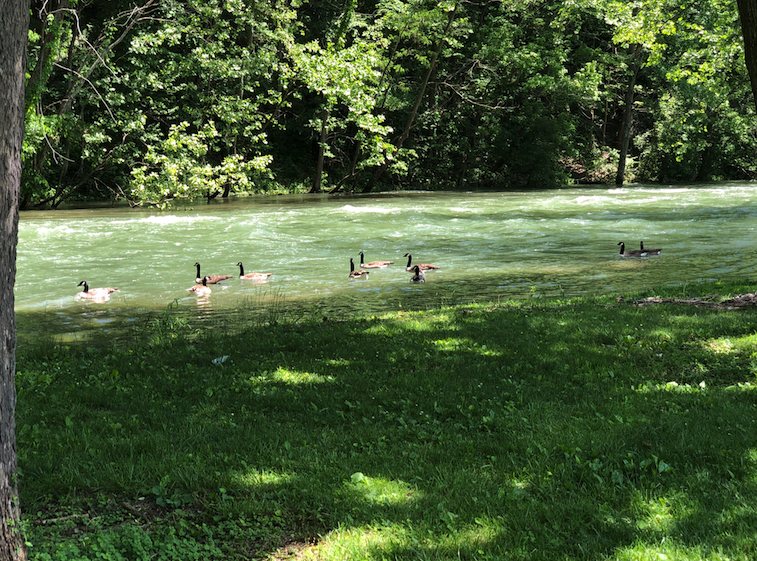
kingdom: Animalia
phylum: Chordata
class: Aves
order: Anseriformes
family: Anatidae
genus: Branta
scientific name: Branta canadensis
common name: Canada goose
